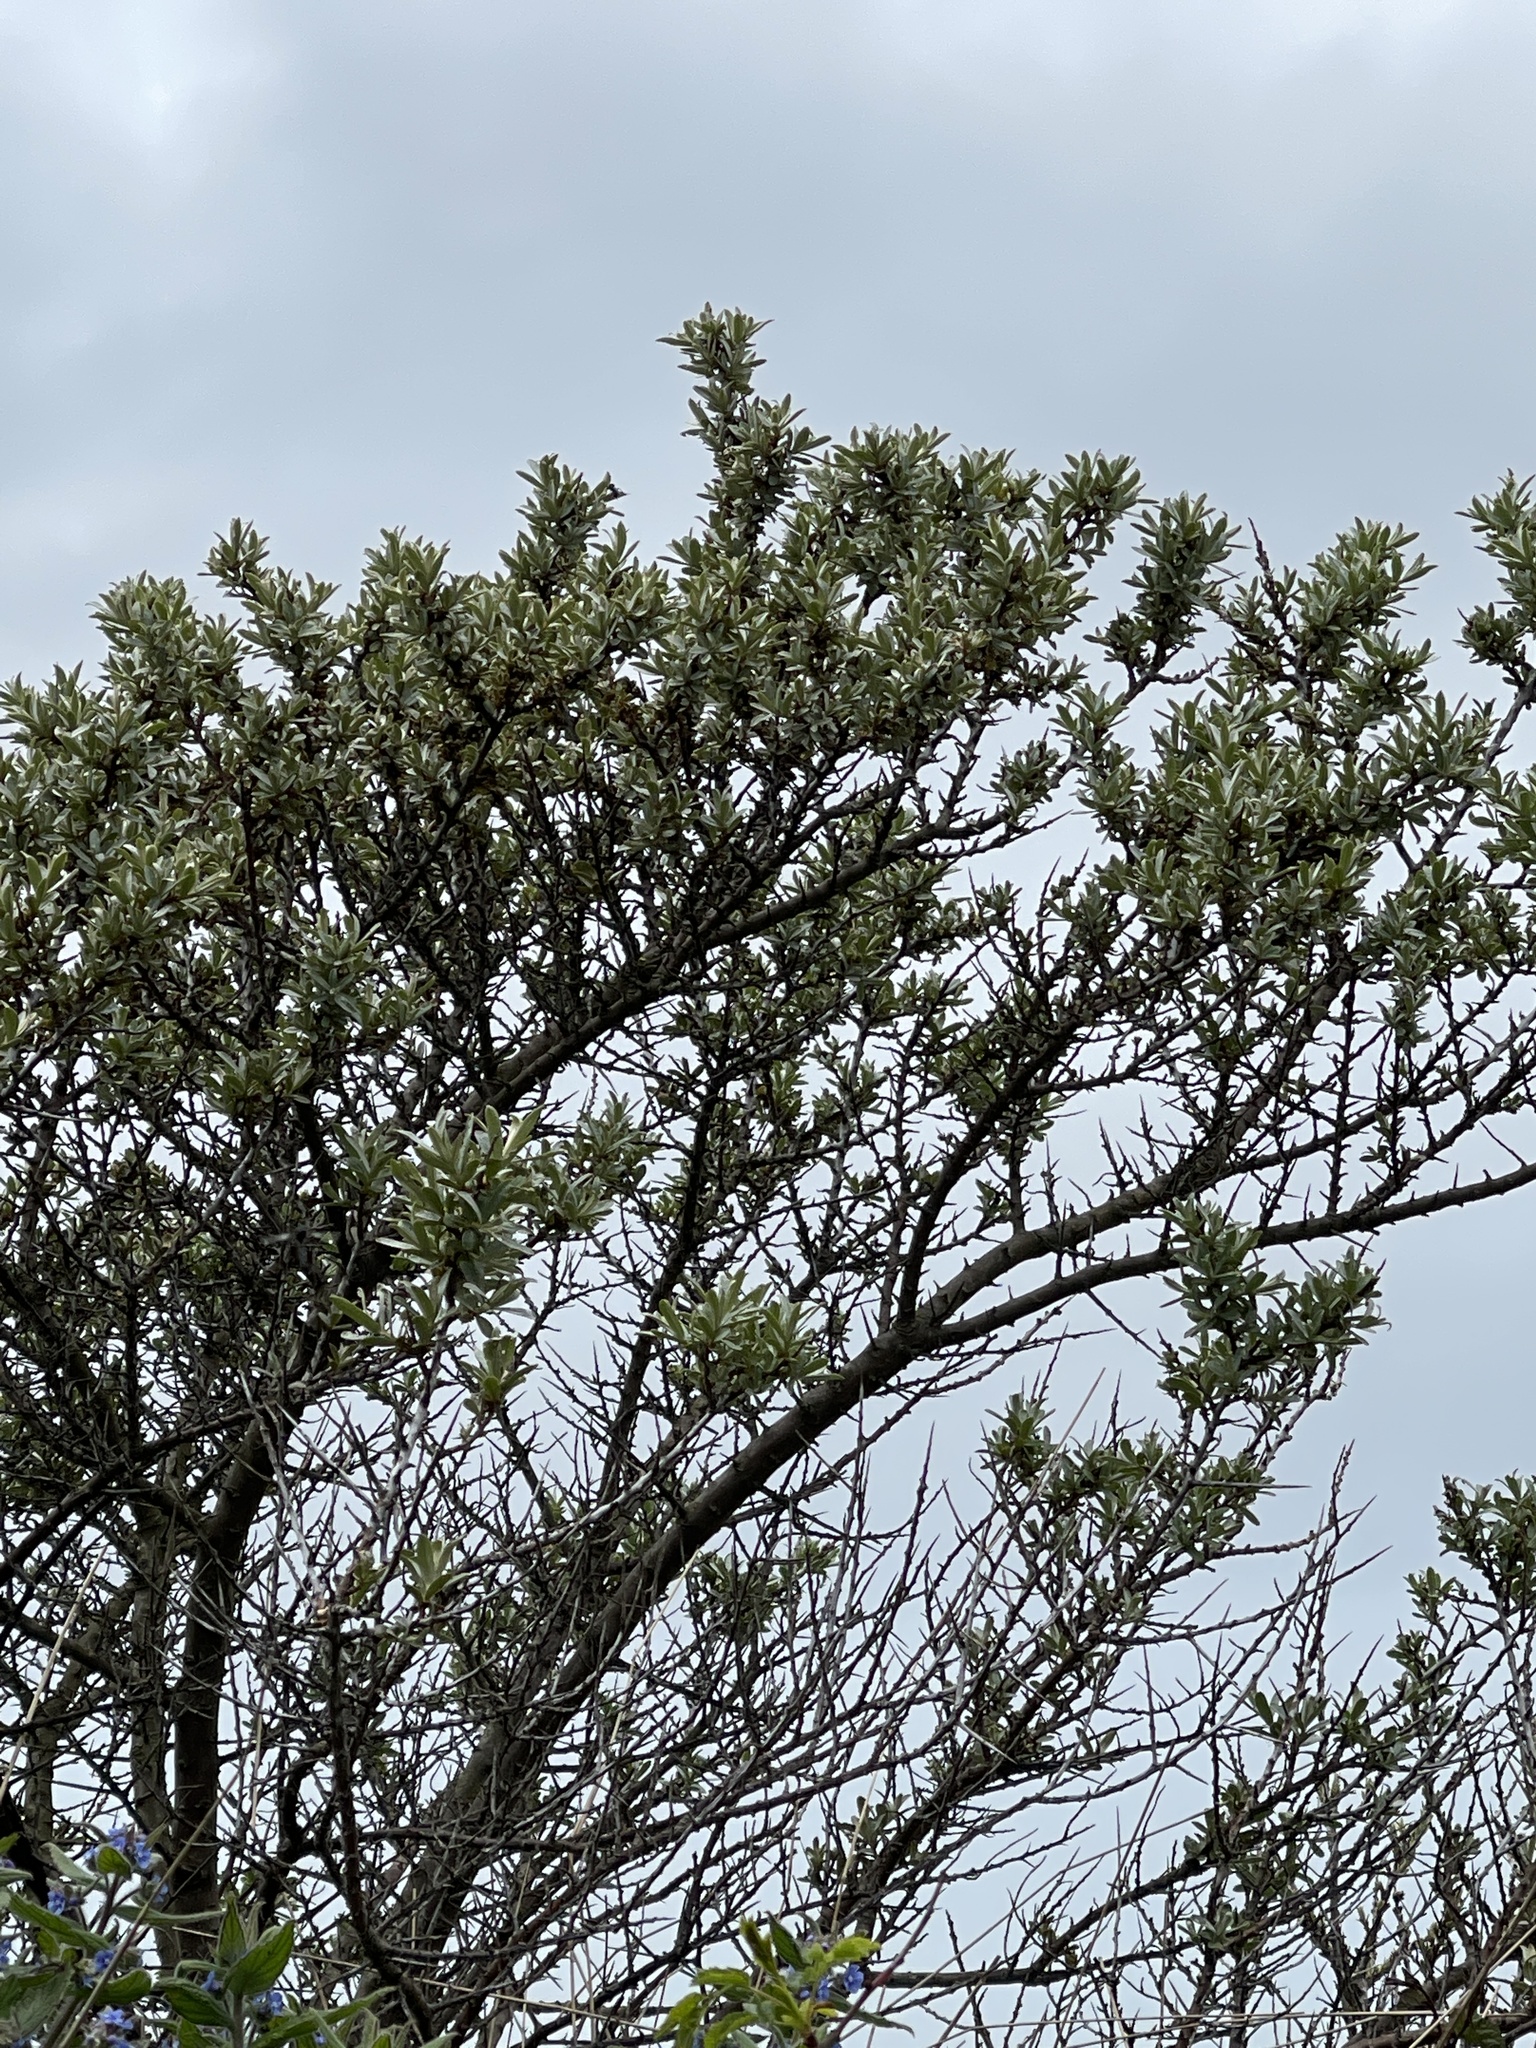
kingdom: Plantae
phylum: Tracheophyta
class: Magnoliopsida
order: Rosales
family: Elaeagnaceae
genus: Hippophae
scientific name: Hippophae rhamnoides
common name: Sea-buckthorn
